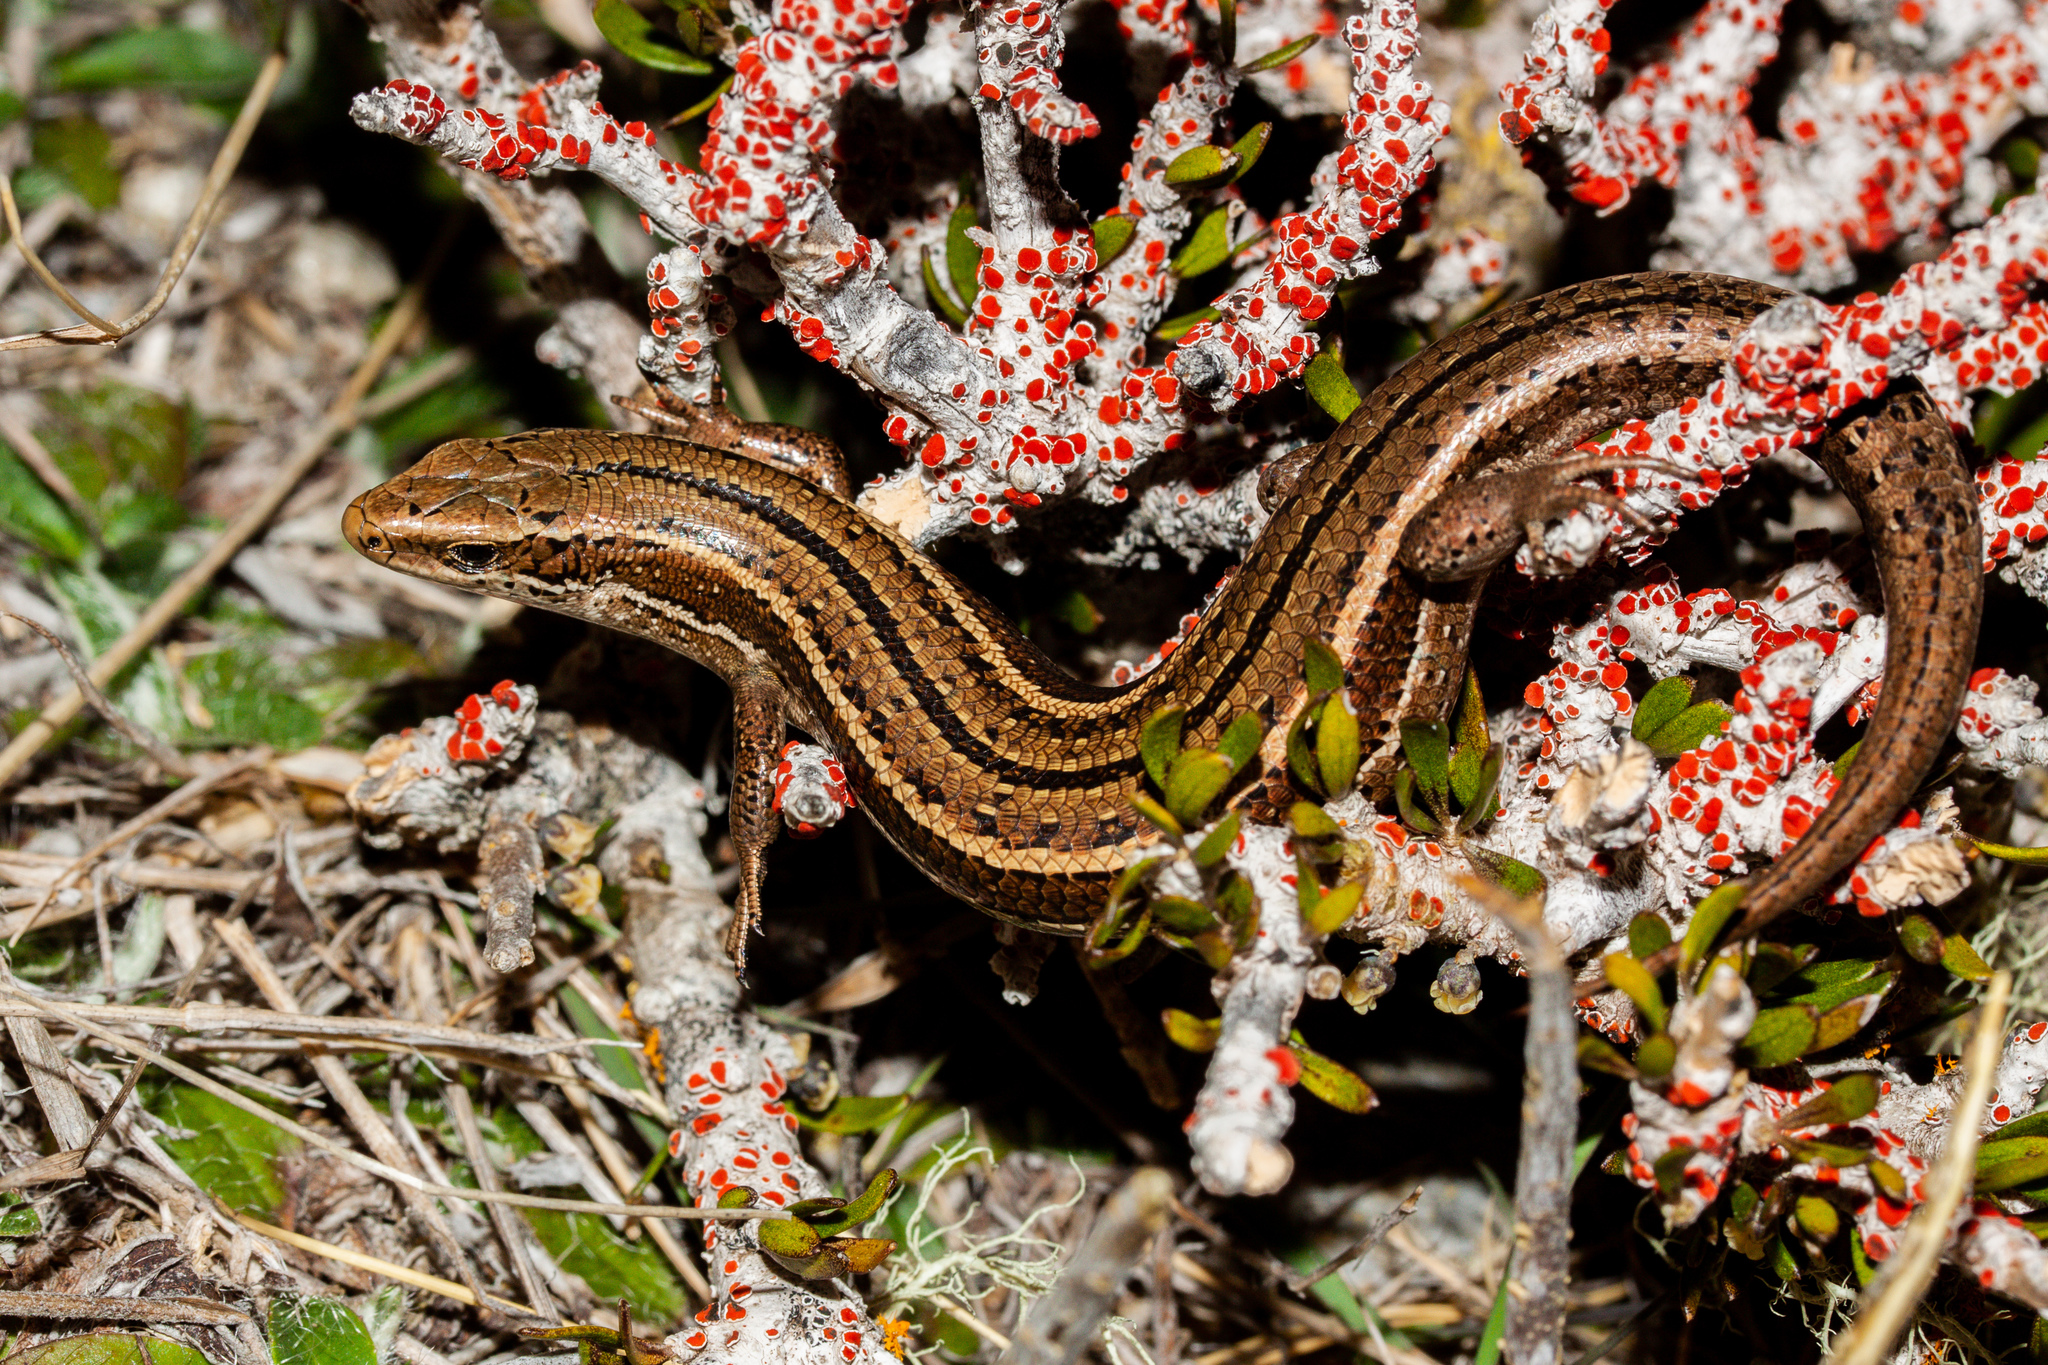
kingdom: Animalia
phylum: Chordata
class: Squamata
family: Scincidae
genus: Oligosoma
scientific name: Oligosoma toka
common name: Nevis skink
